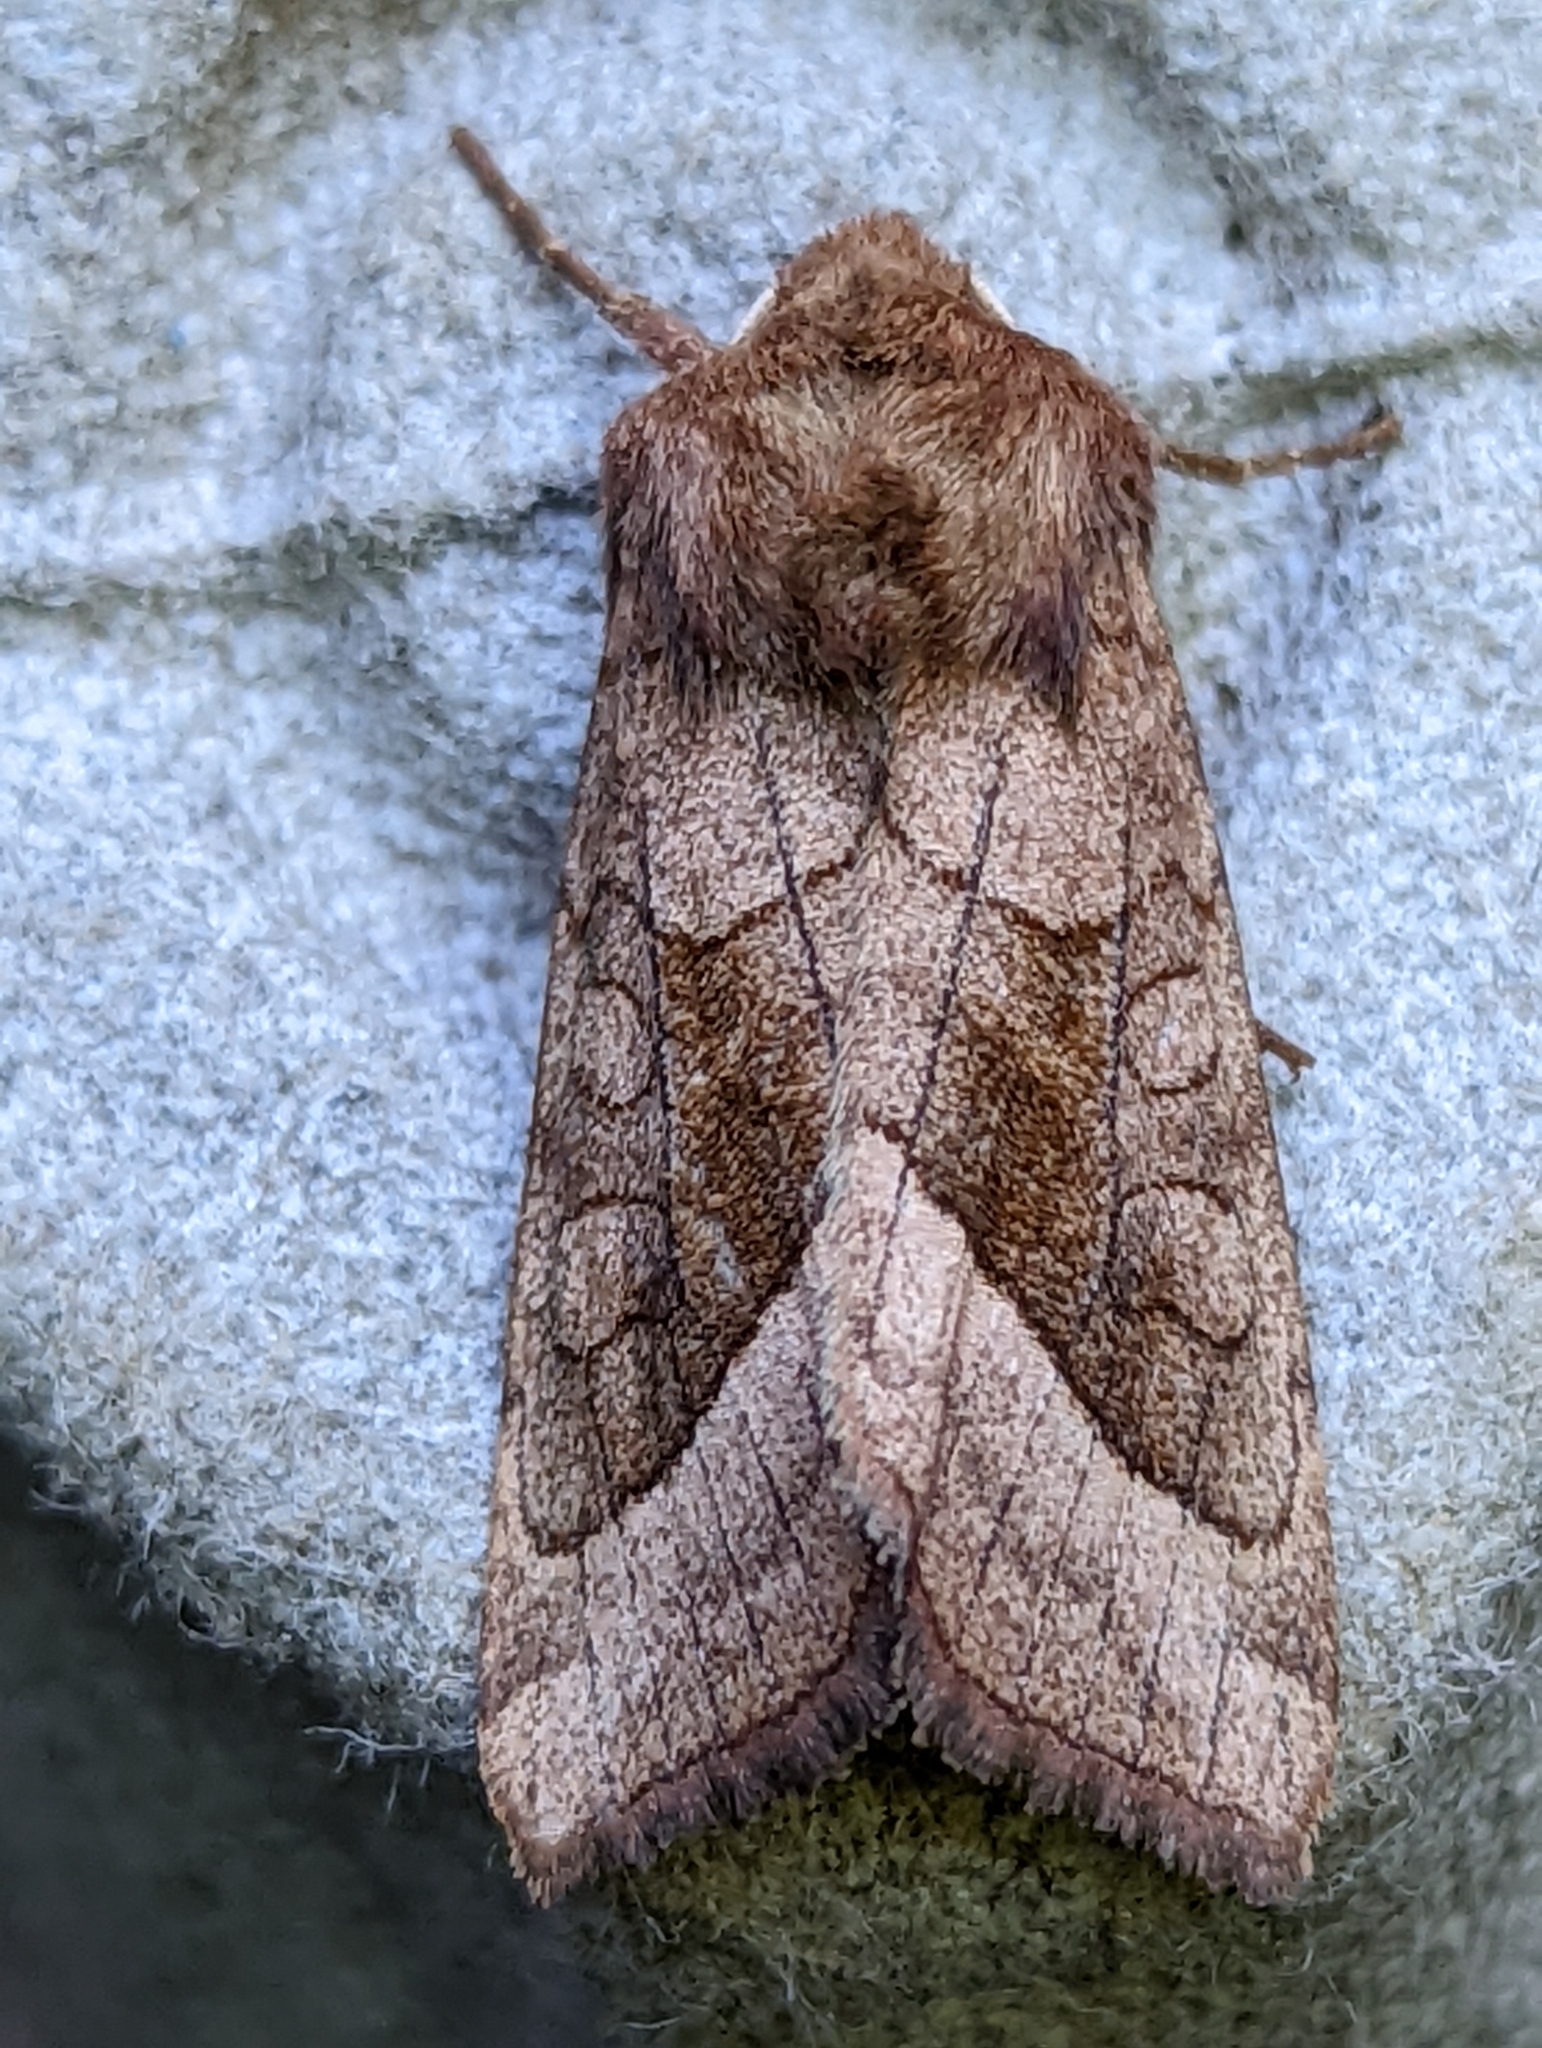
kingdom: Animalia
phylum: Arthropoda
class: Insecta
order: Lepidoptera
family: Noctuidae
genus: Hydraecia
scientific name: Hydraecia micacea
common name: Rosy rustic
